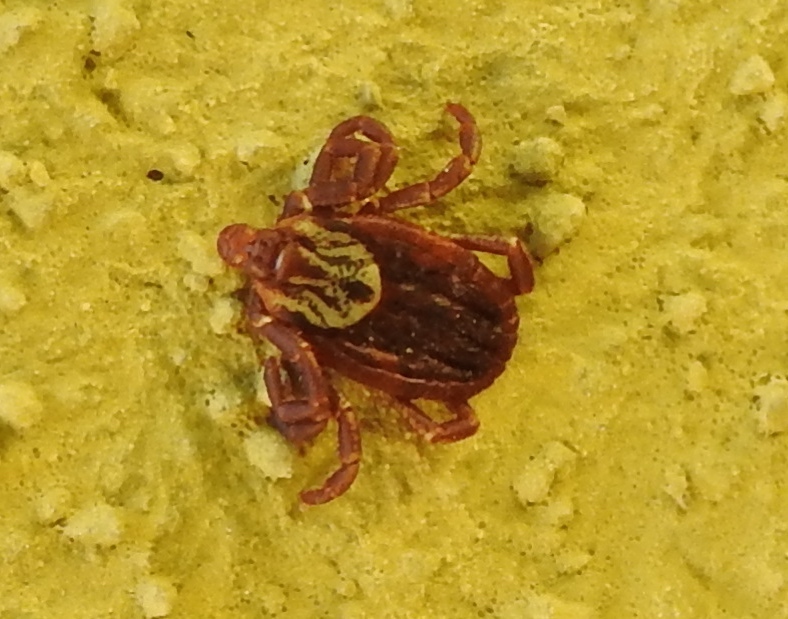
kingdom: Animalia
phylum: Arthropoda
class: Arachnida
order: Ixodida
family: Ixodidae
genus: Dermacentor
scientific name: Dermacentor
